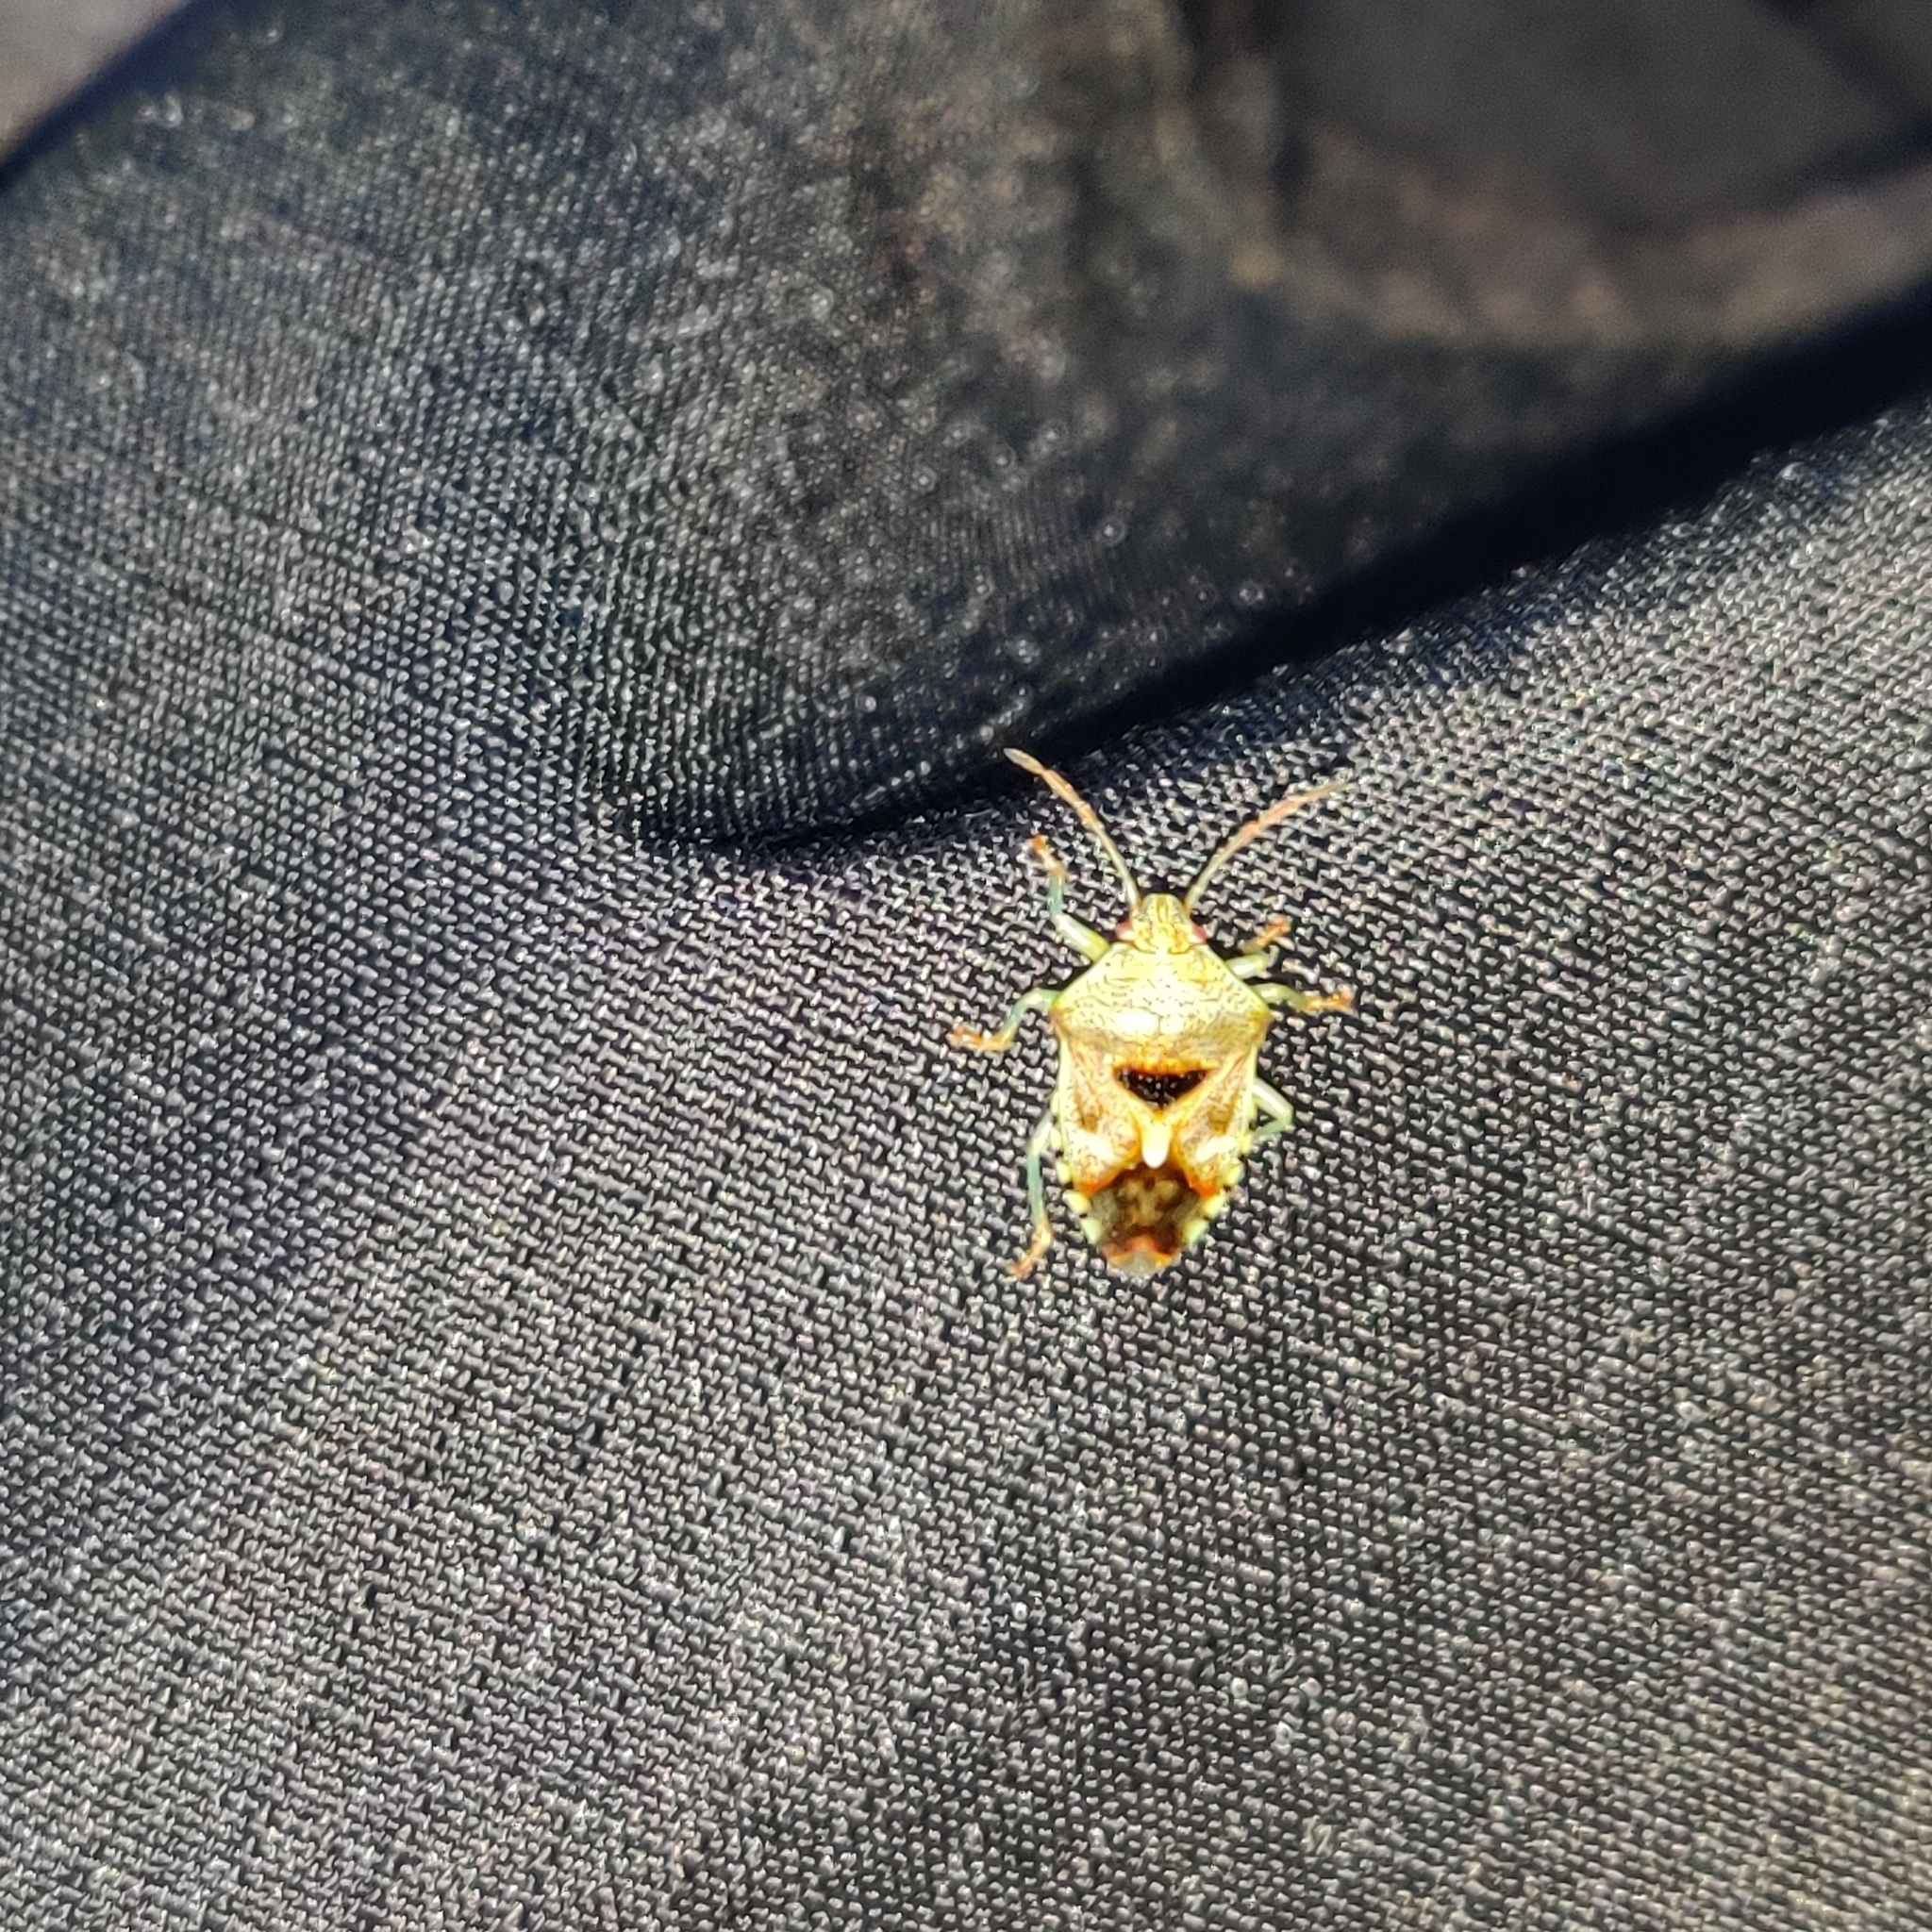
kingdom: Animalia
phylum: Arthropoda
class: Insecta
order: Hemiptera
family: Acanthosomatidae
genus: Elasmucha
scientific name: Elasmucha grisea
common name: Parent bug
